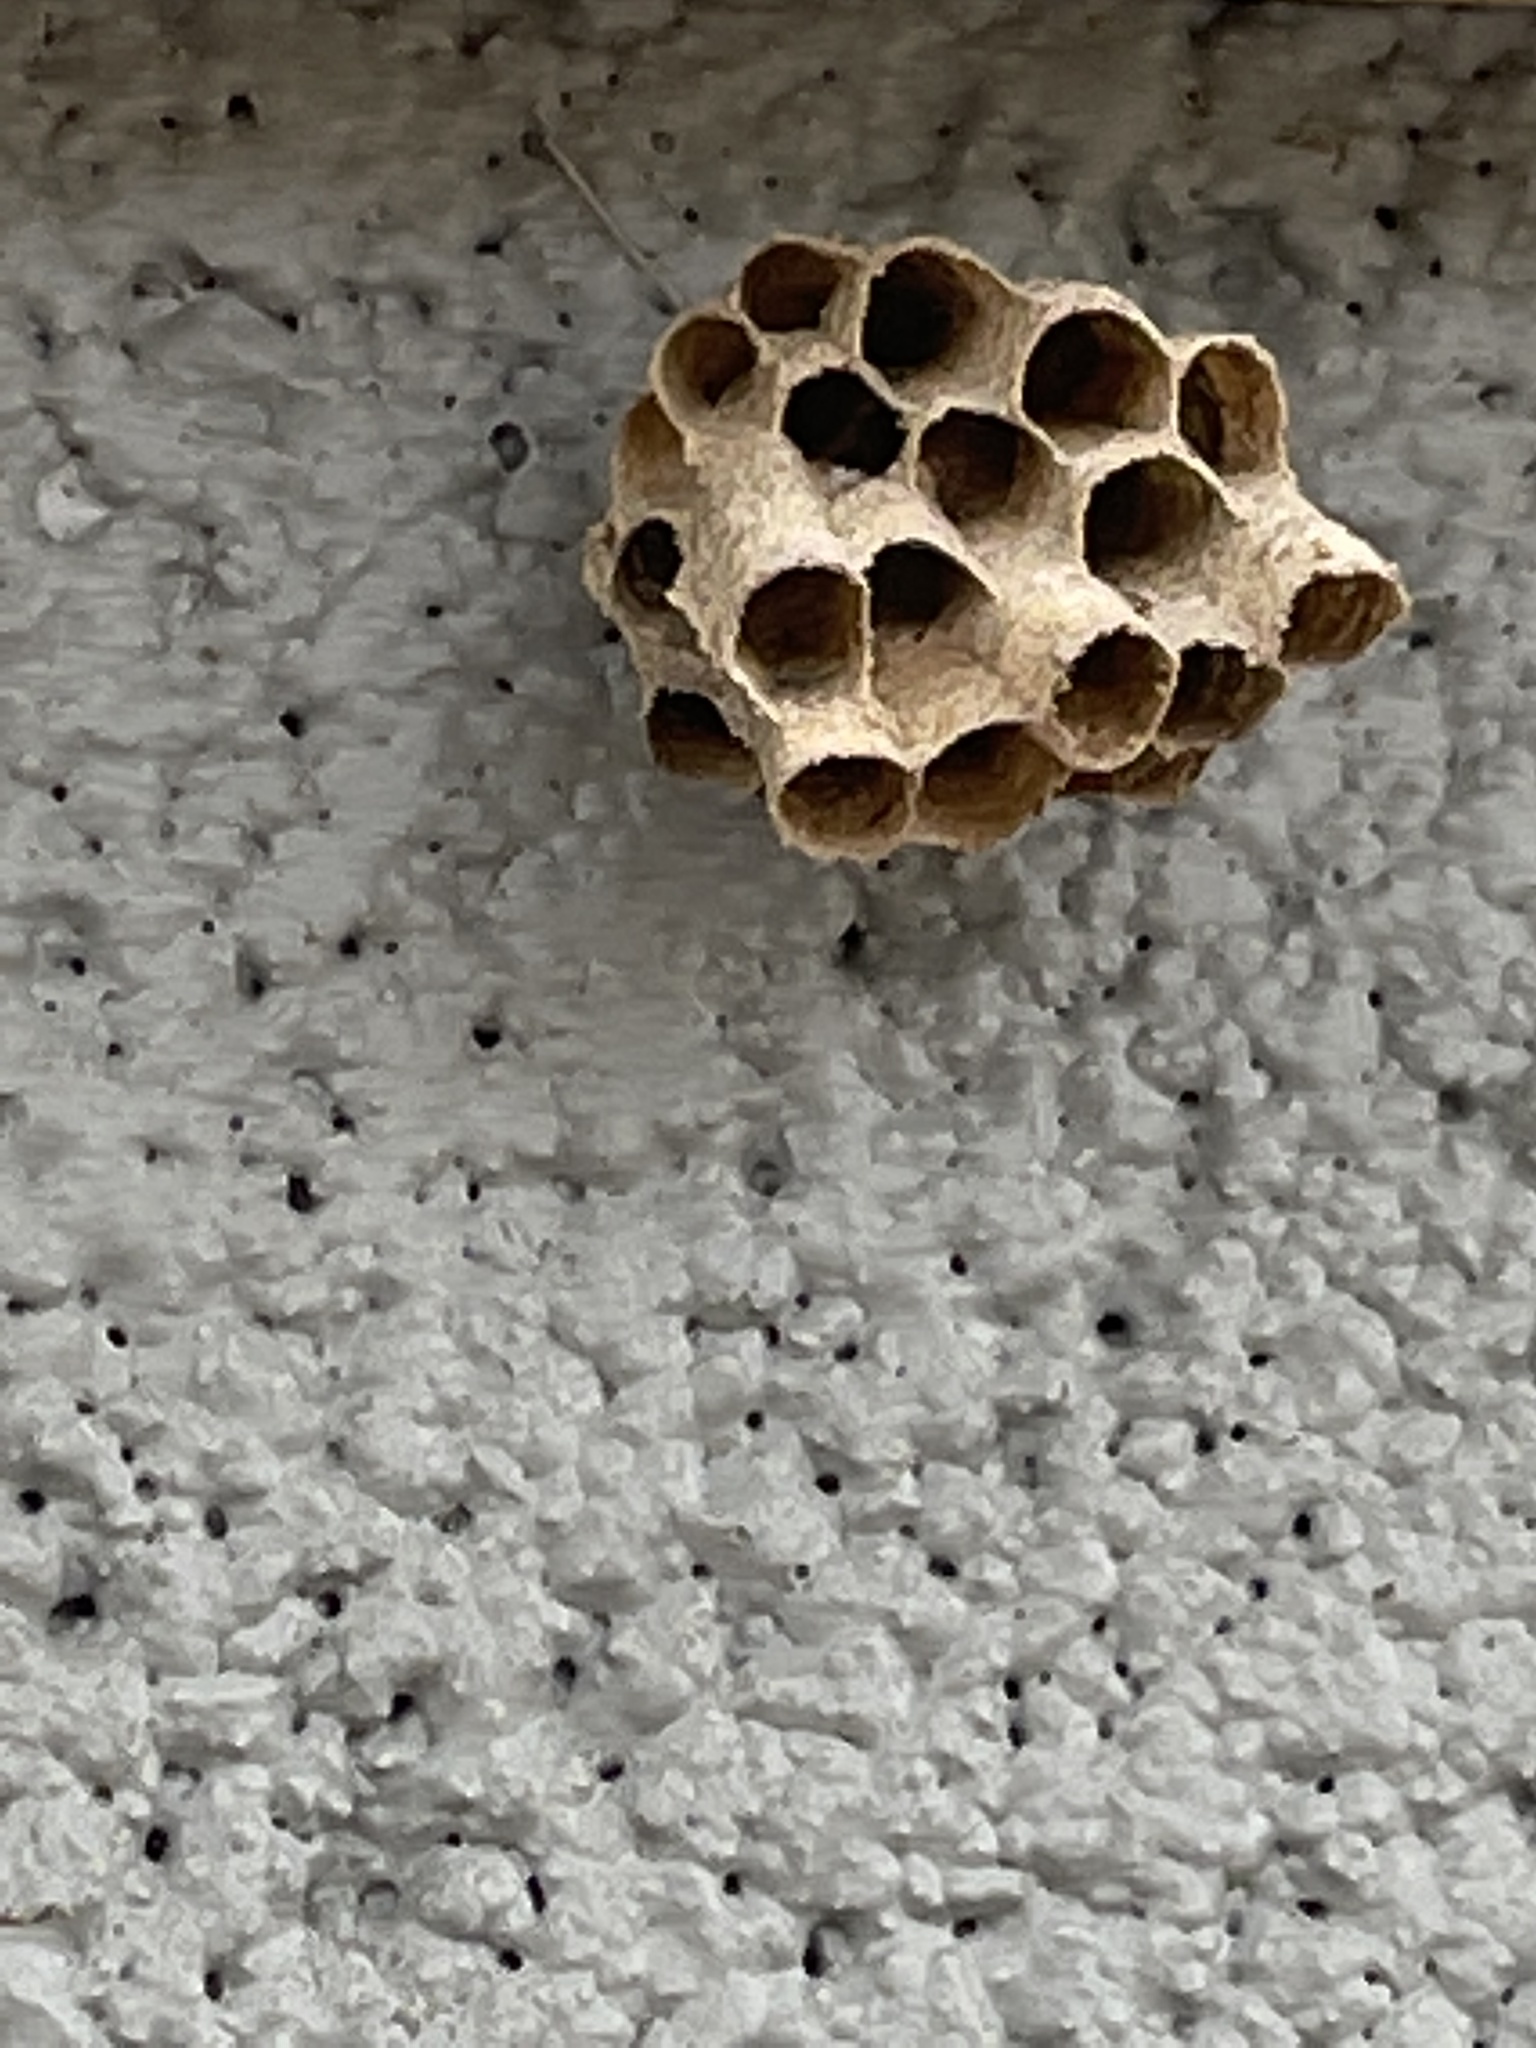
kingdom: Animalia
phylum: Arthropoda
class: Insecta
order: Hymenoptera
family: Vespidae
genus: Mischocyttarus
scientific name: Mischocyttarus mexicanus
